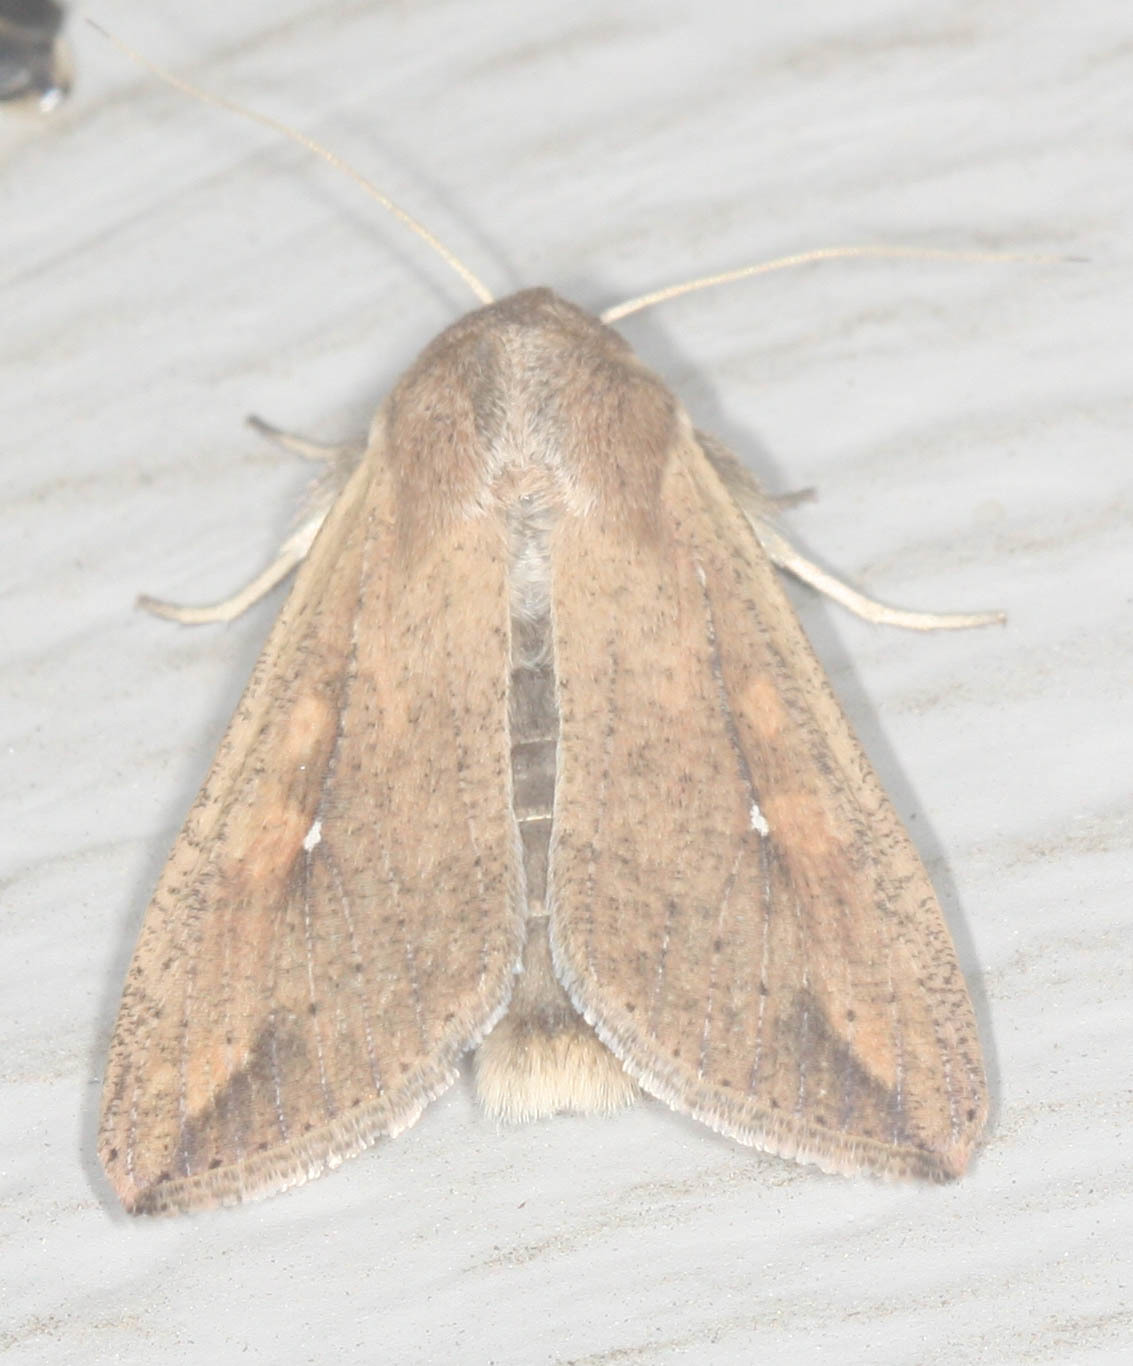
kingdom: Animalia
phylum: Arthropoda
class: Insecta
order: Lepidoptera
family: Noctuidae
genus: Mythimna
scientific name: Mythimna unipuncta
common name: White-speck
